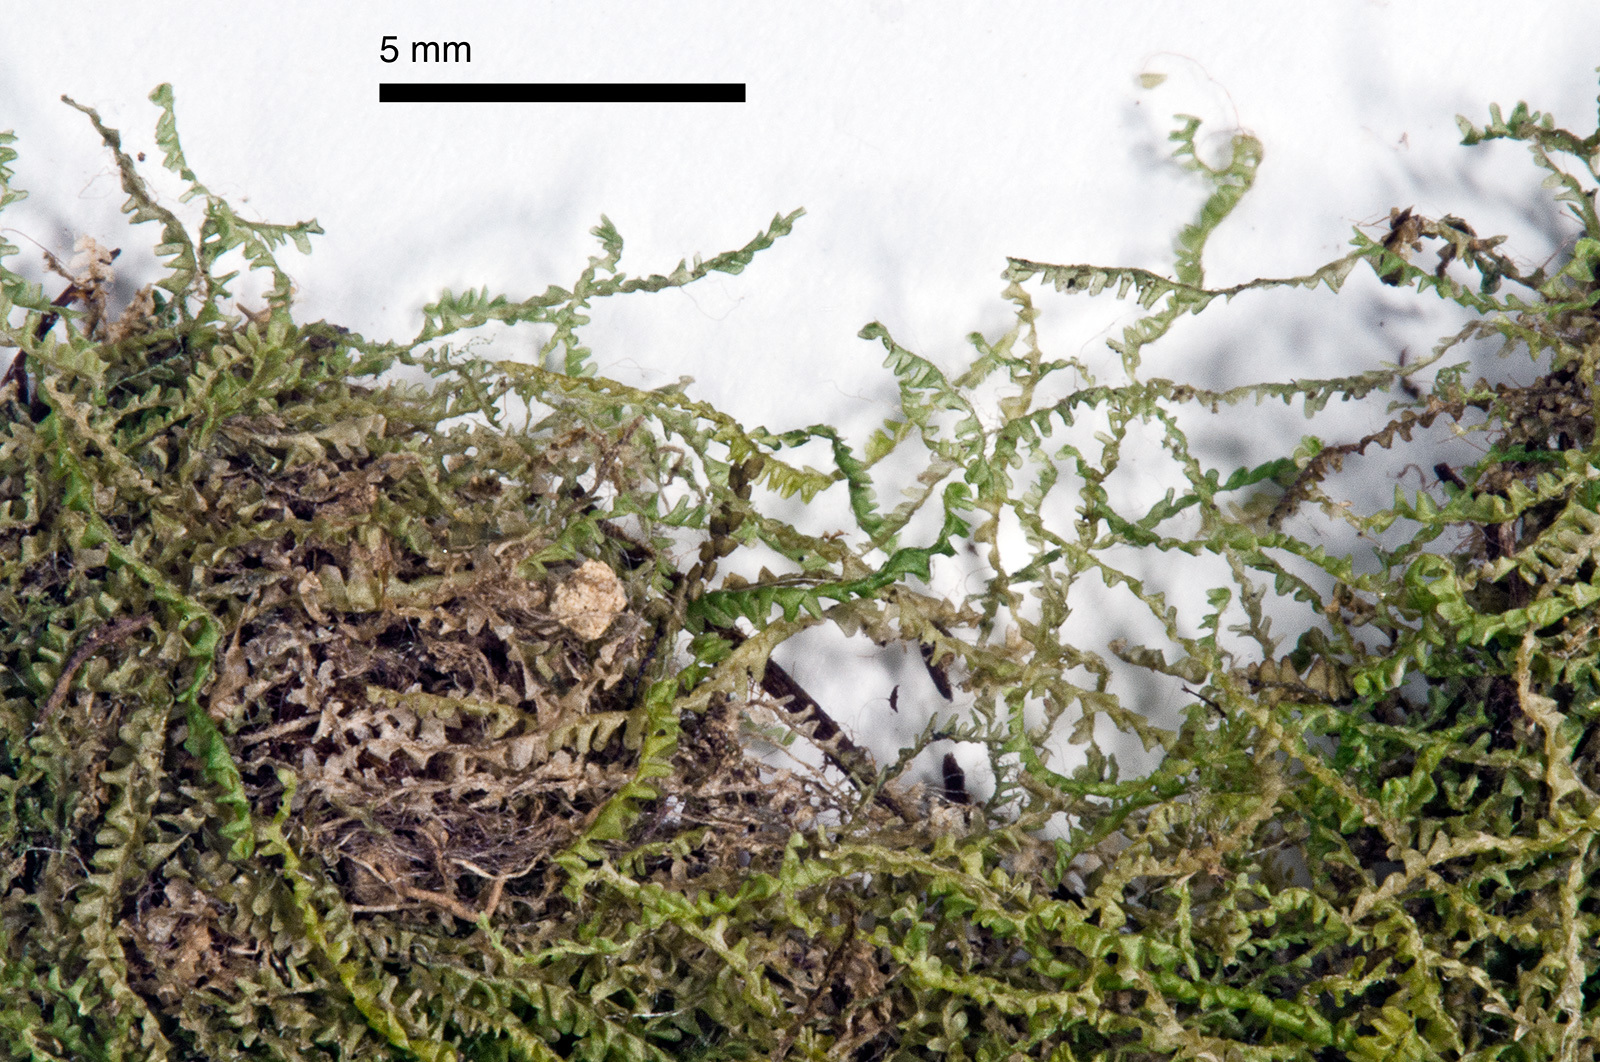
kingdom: Plantae
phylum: Marchantiophyta
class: Jungermanniopsida
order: Jungermanniales
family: Notoscyphaceae
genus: Notoscyphus
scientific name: Notoscyphus lutescens
